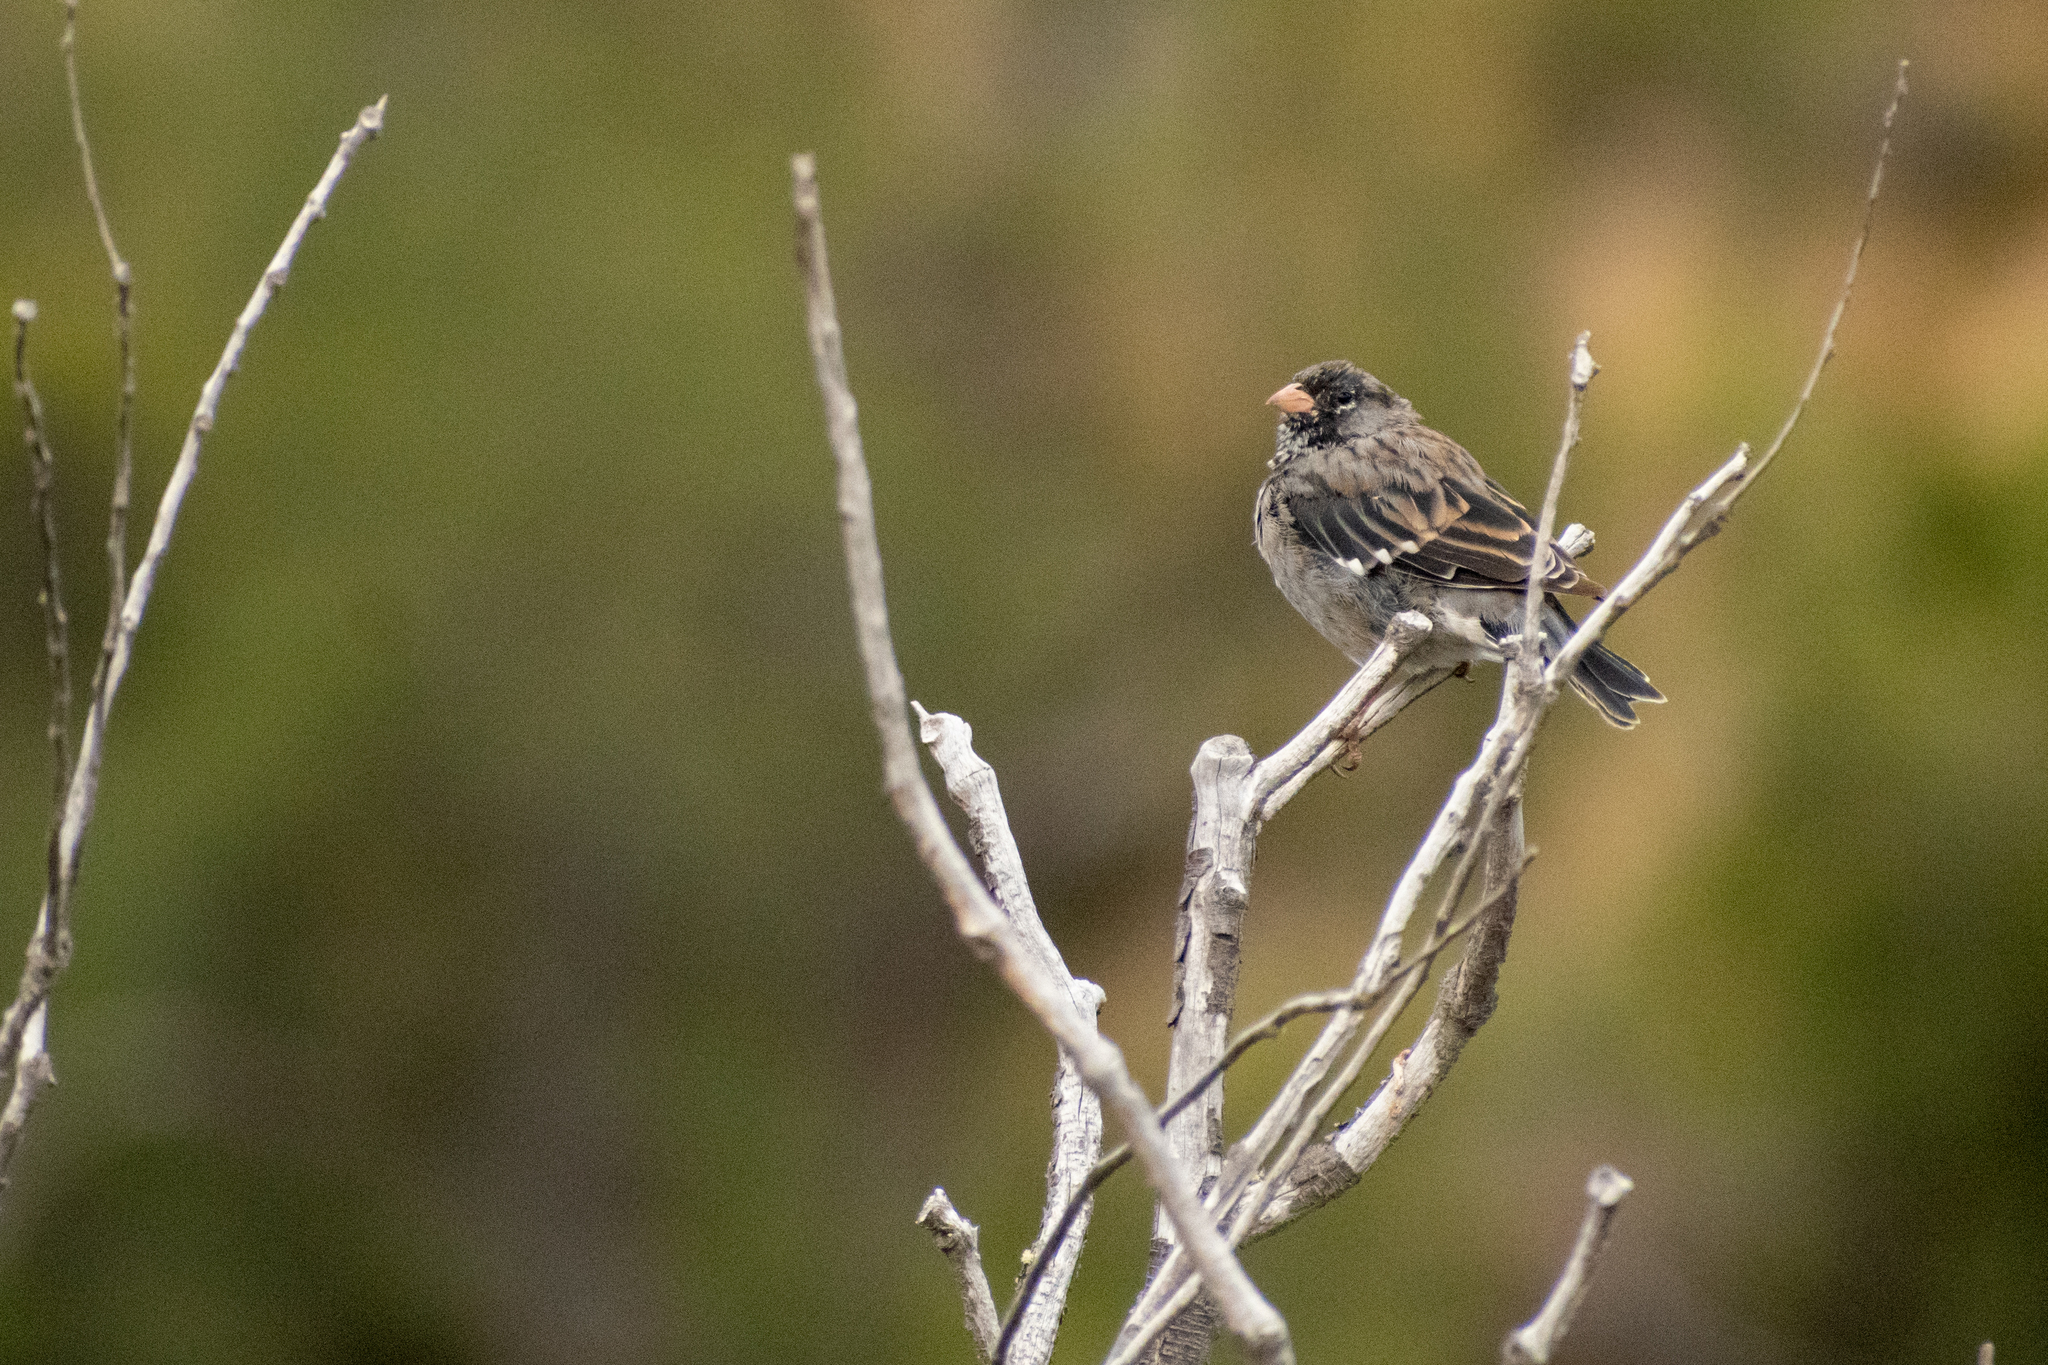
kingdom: Animalia
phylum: Chordata
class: Aves
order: Passeriformes
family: Thraupidae
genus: Rhopospina
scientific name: Rhopospina fruticeti
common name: Mourning sierra finch
